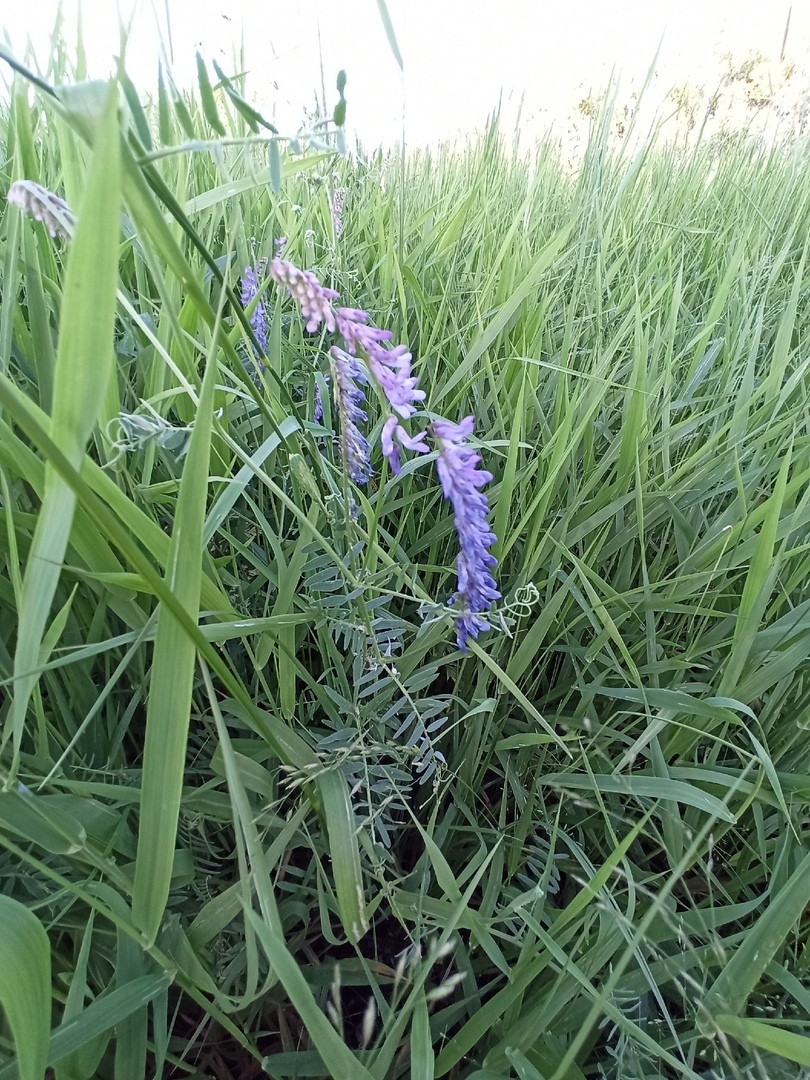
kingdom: Plantae
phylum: Tracheophyta
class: Magnoliopsida
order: Fabales
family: Fabaceae
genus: Vicia
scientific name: Vicia cracca
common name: Bird vetch
